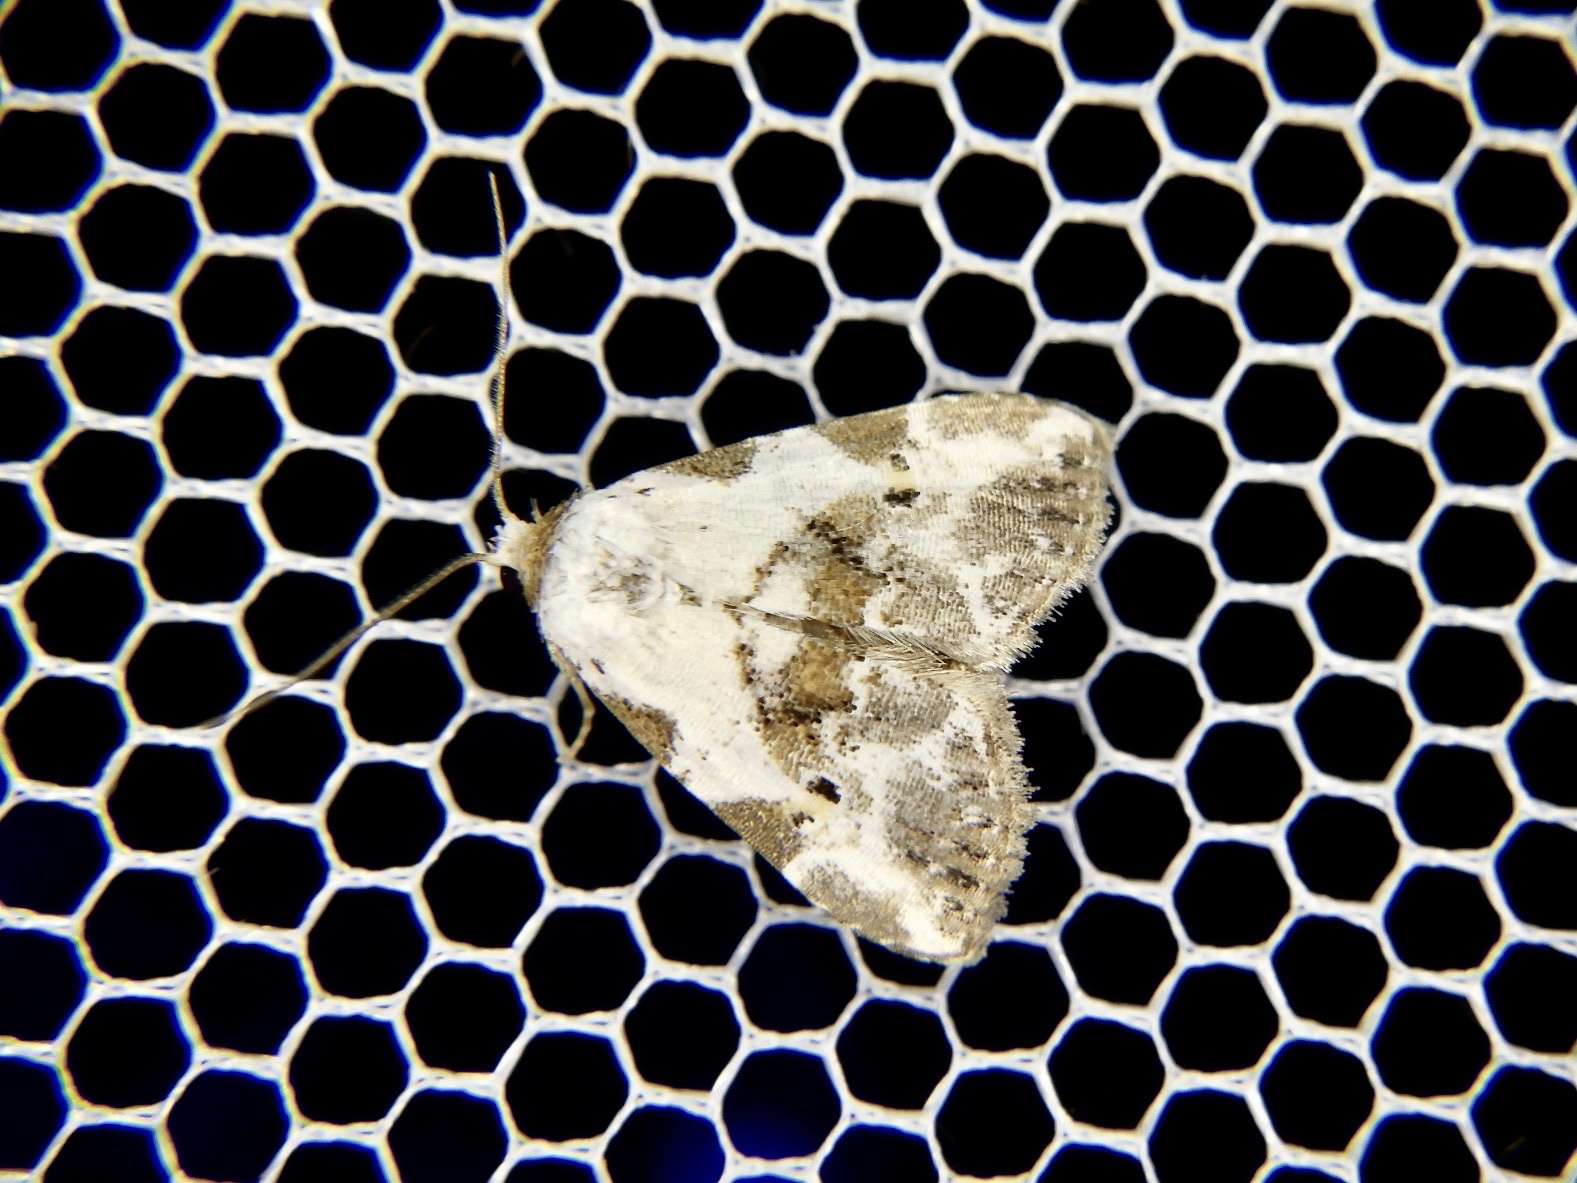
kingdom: Animalia
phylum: Arthropoda
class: Insecta
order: Lepidoptera
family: Erebidae
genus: Chorsia
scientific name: Chorsia noloides
